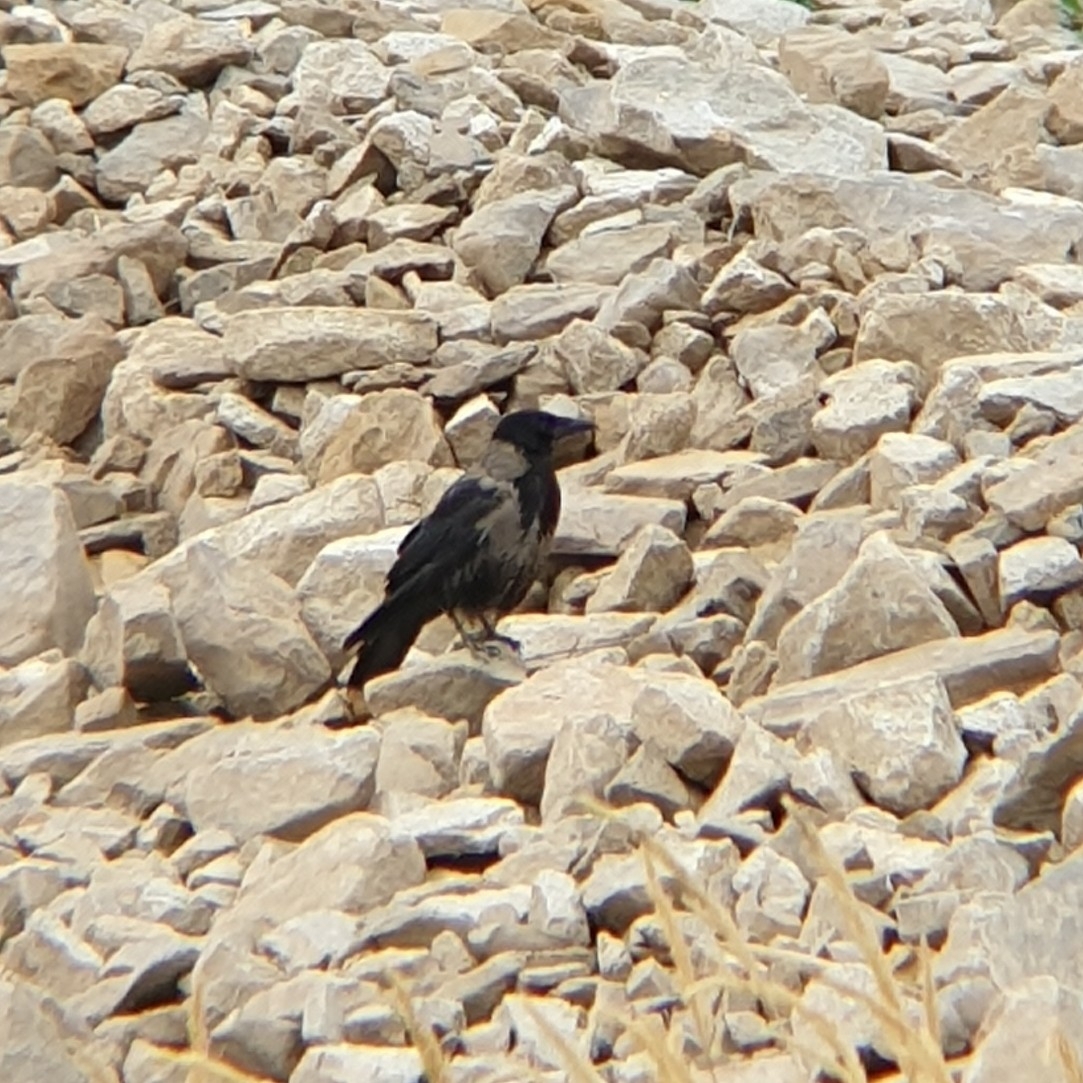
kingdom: Animalia
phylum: Chordata
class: Aves
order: Passeriformes
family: Corvidae
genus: Corvus
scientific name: Corvus
